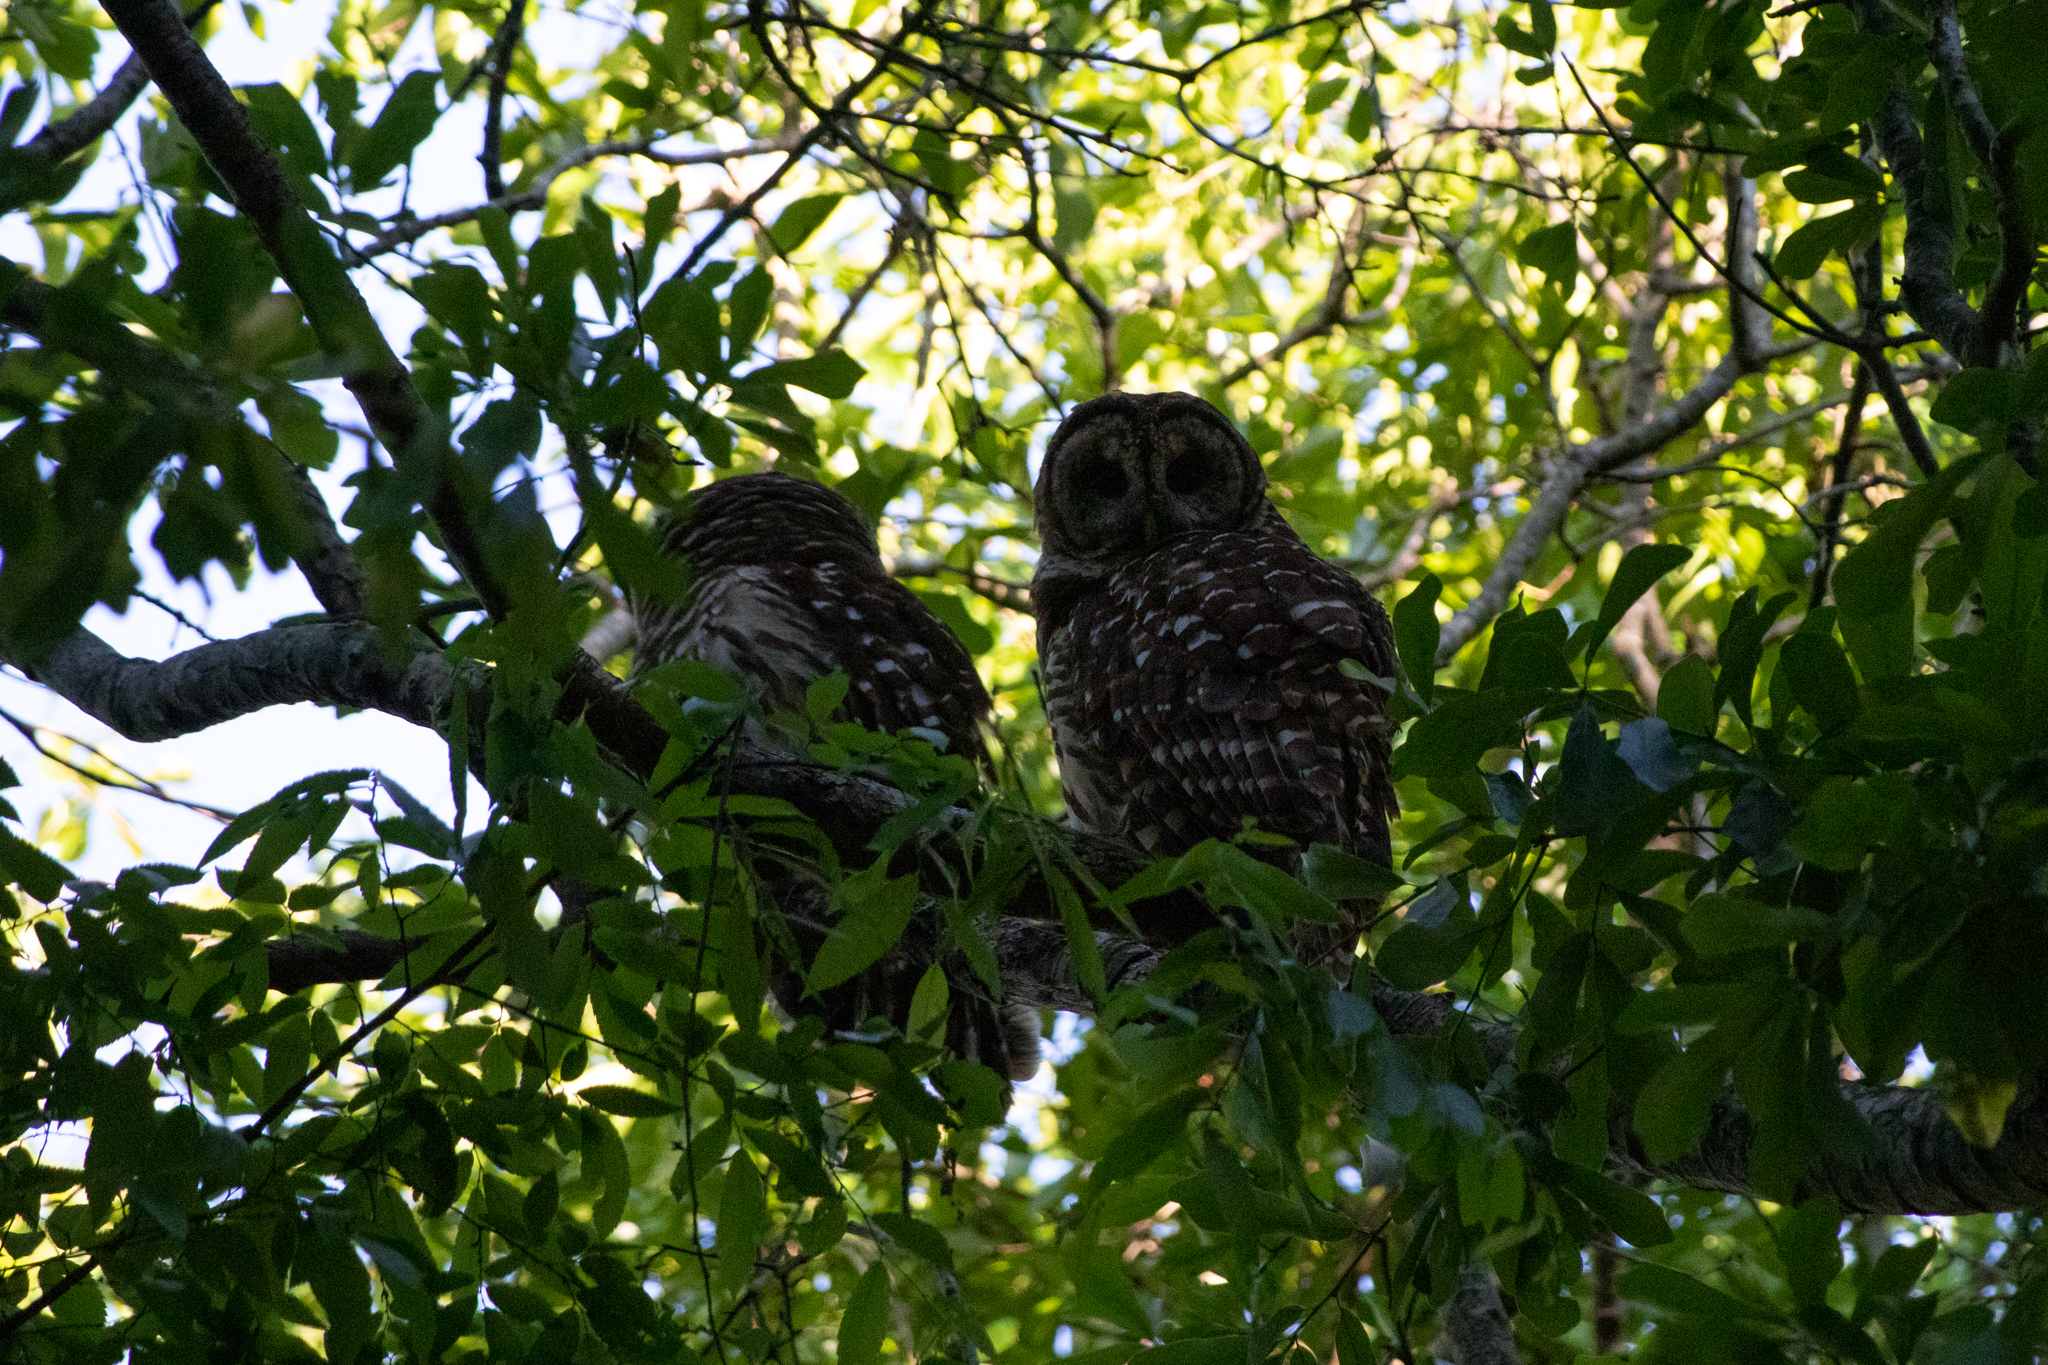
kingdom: Animalia
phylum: Chordata
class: Aves
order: Strigiformes
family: Strigidae
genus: Strix
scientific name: Strix varia
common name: Barred owl
